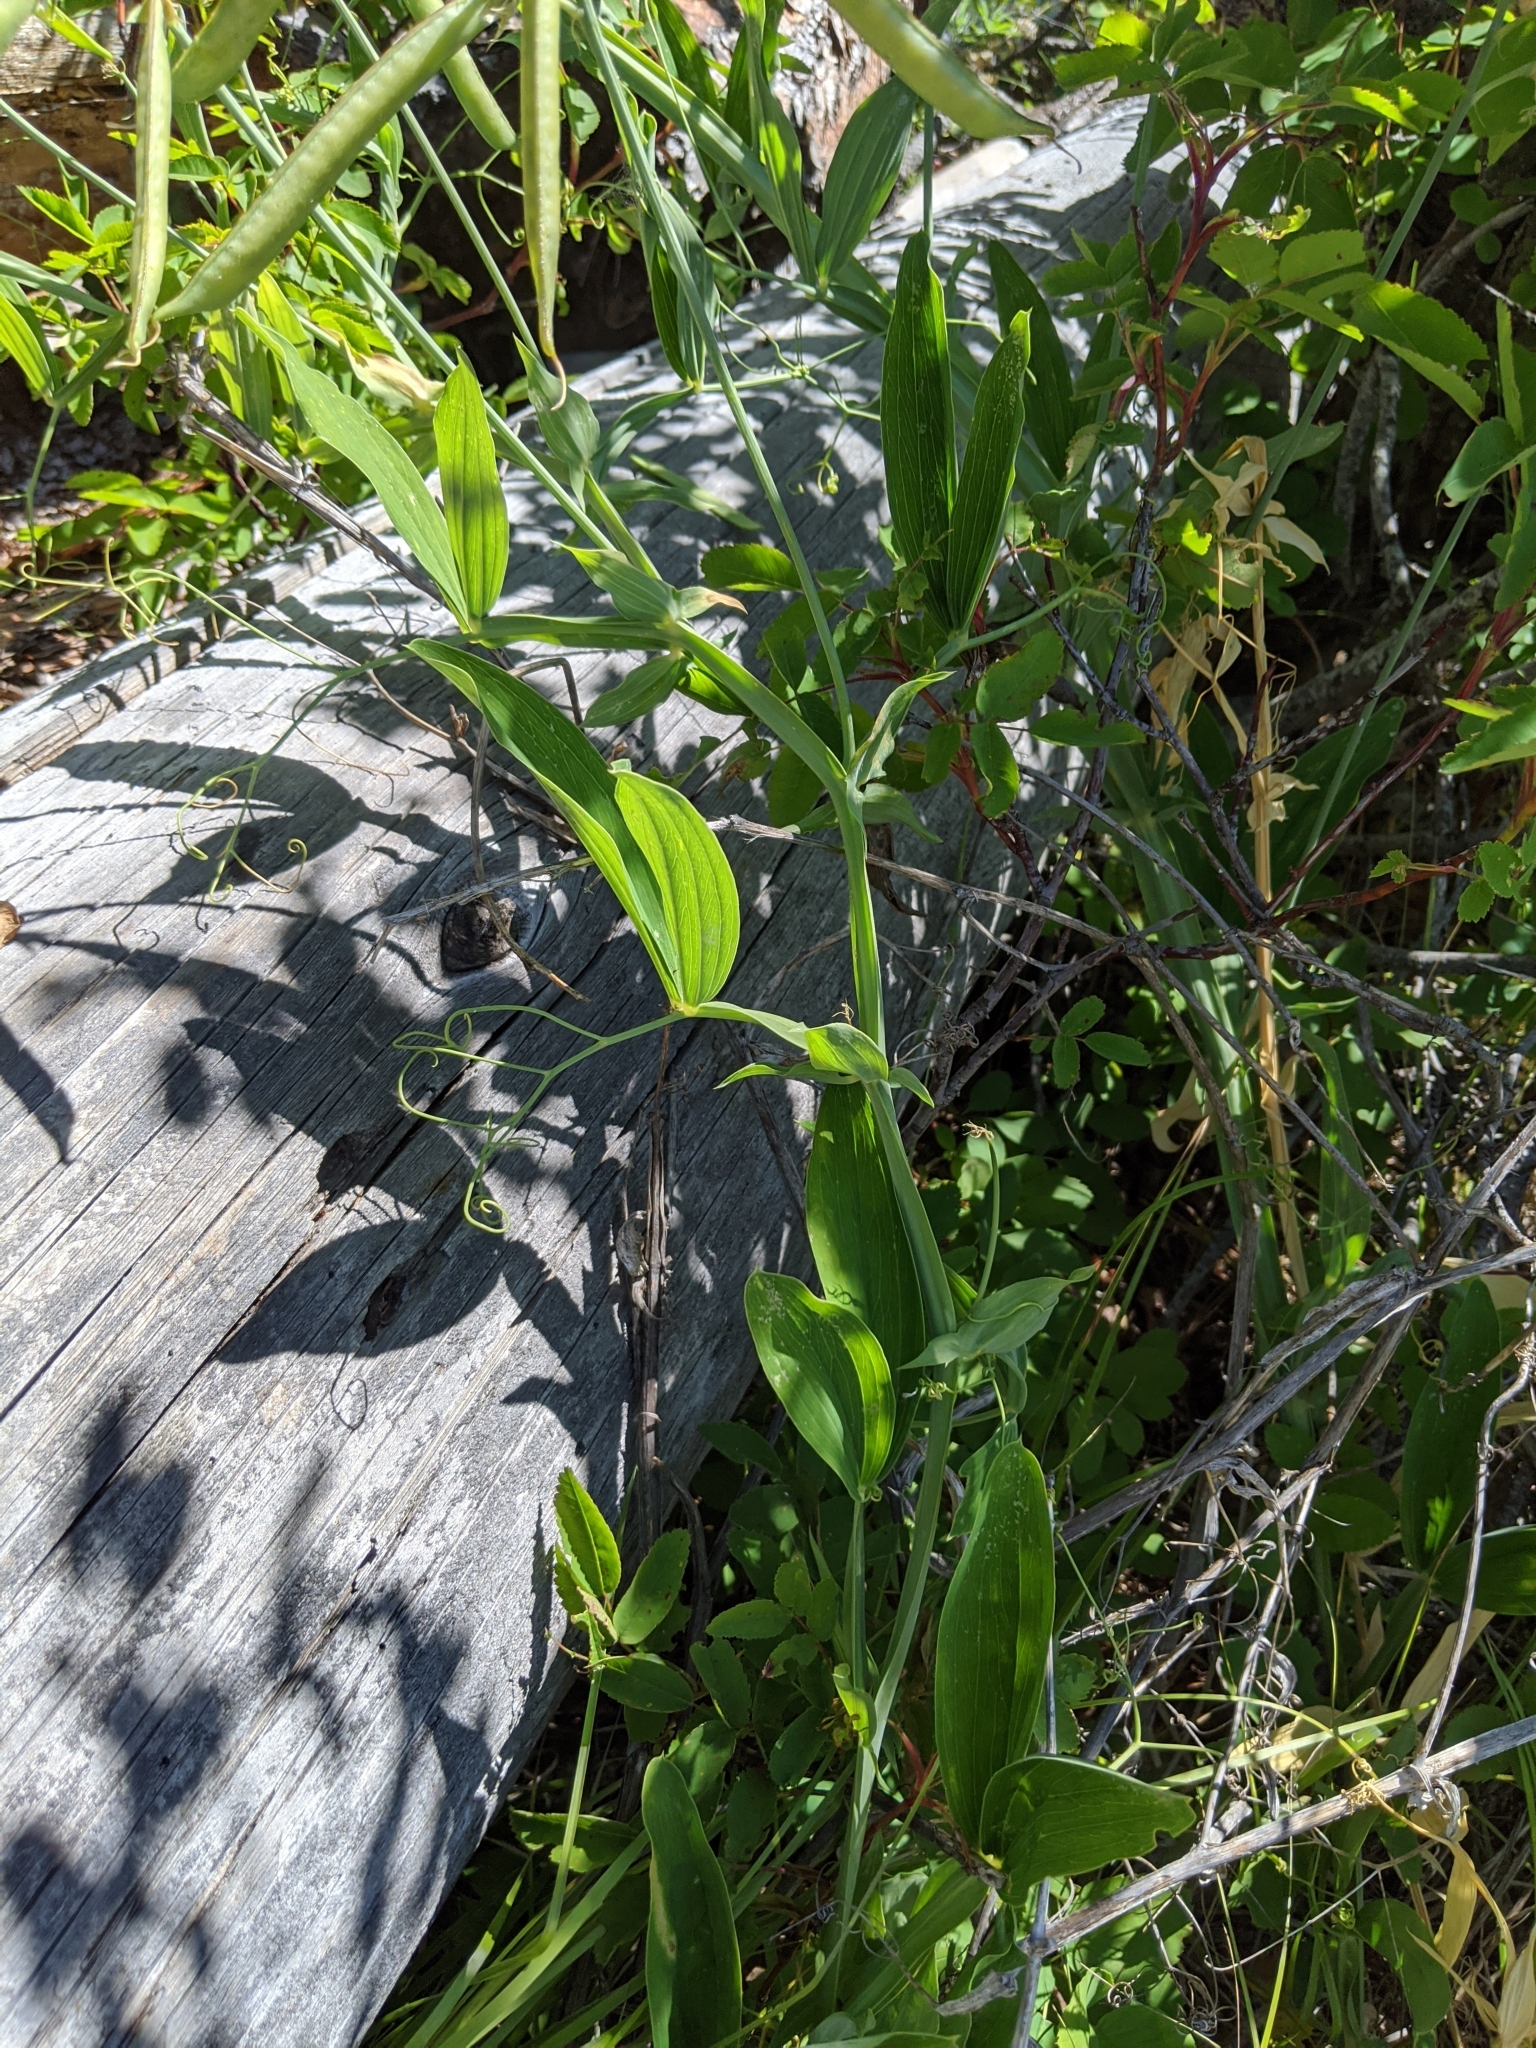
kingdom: Plantae
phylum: Tracheophyta
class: Magnoliopsida
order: Fabales
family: Fabaceae
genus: Lathyrus
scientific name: Lathyrus latifolius
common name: Perennial pea
